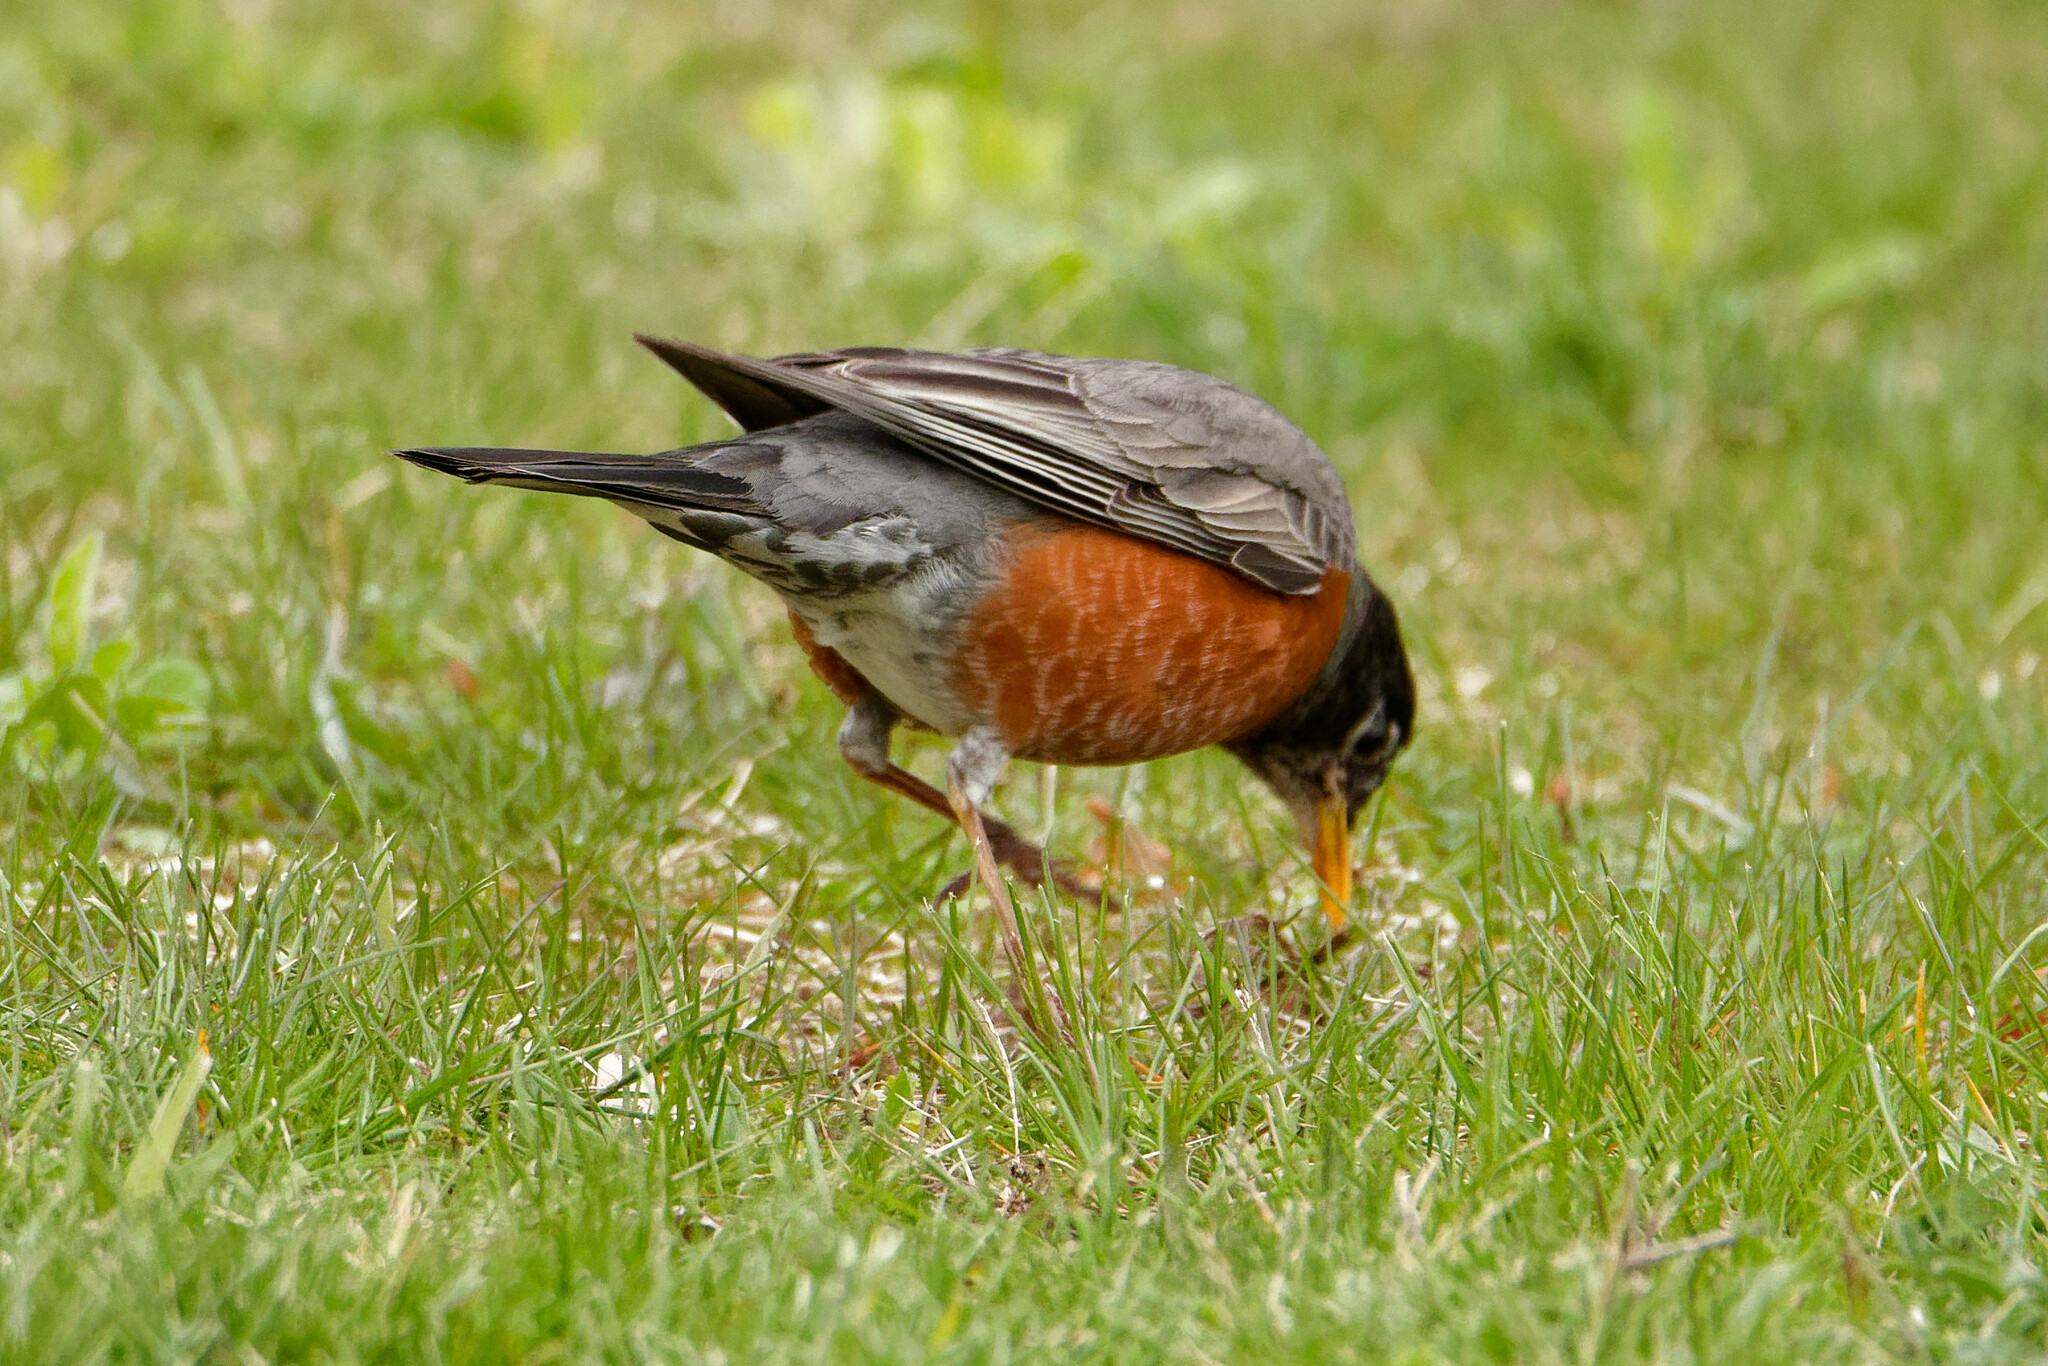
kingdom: Animalia
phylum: Chordata
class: Aves
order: Passeriformes
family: Turdidae
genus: Turdus
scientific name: Turdus migratorius
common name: American robin
